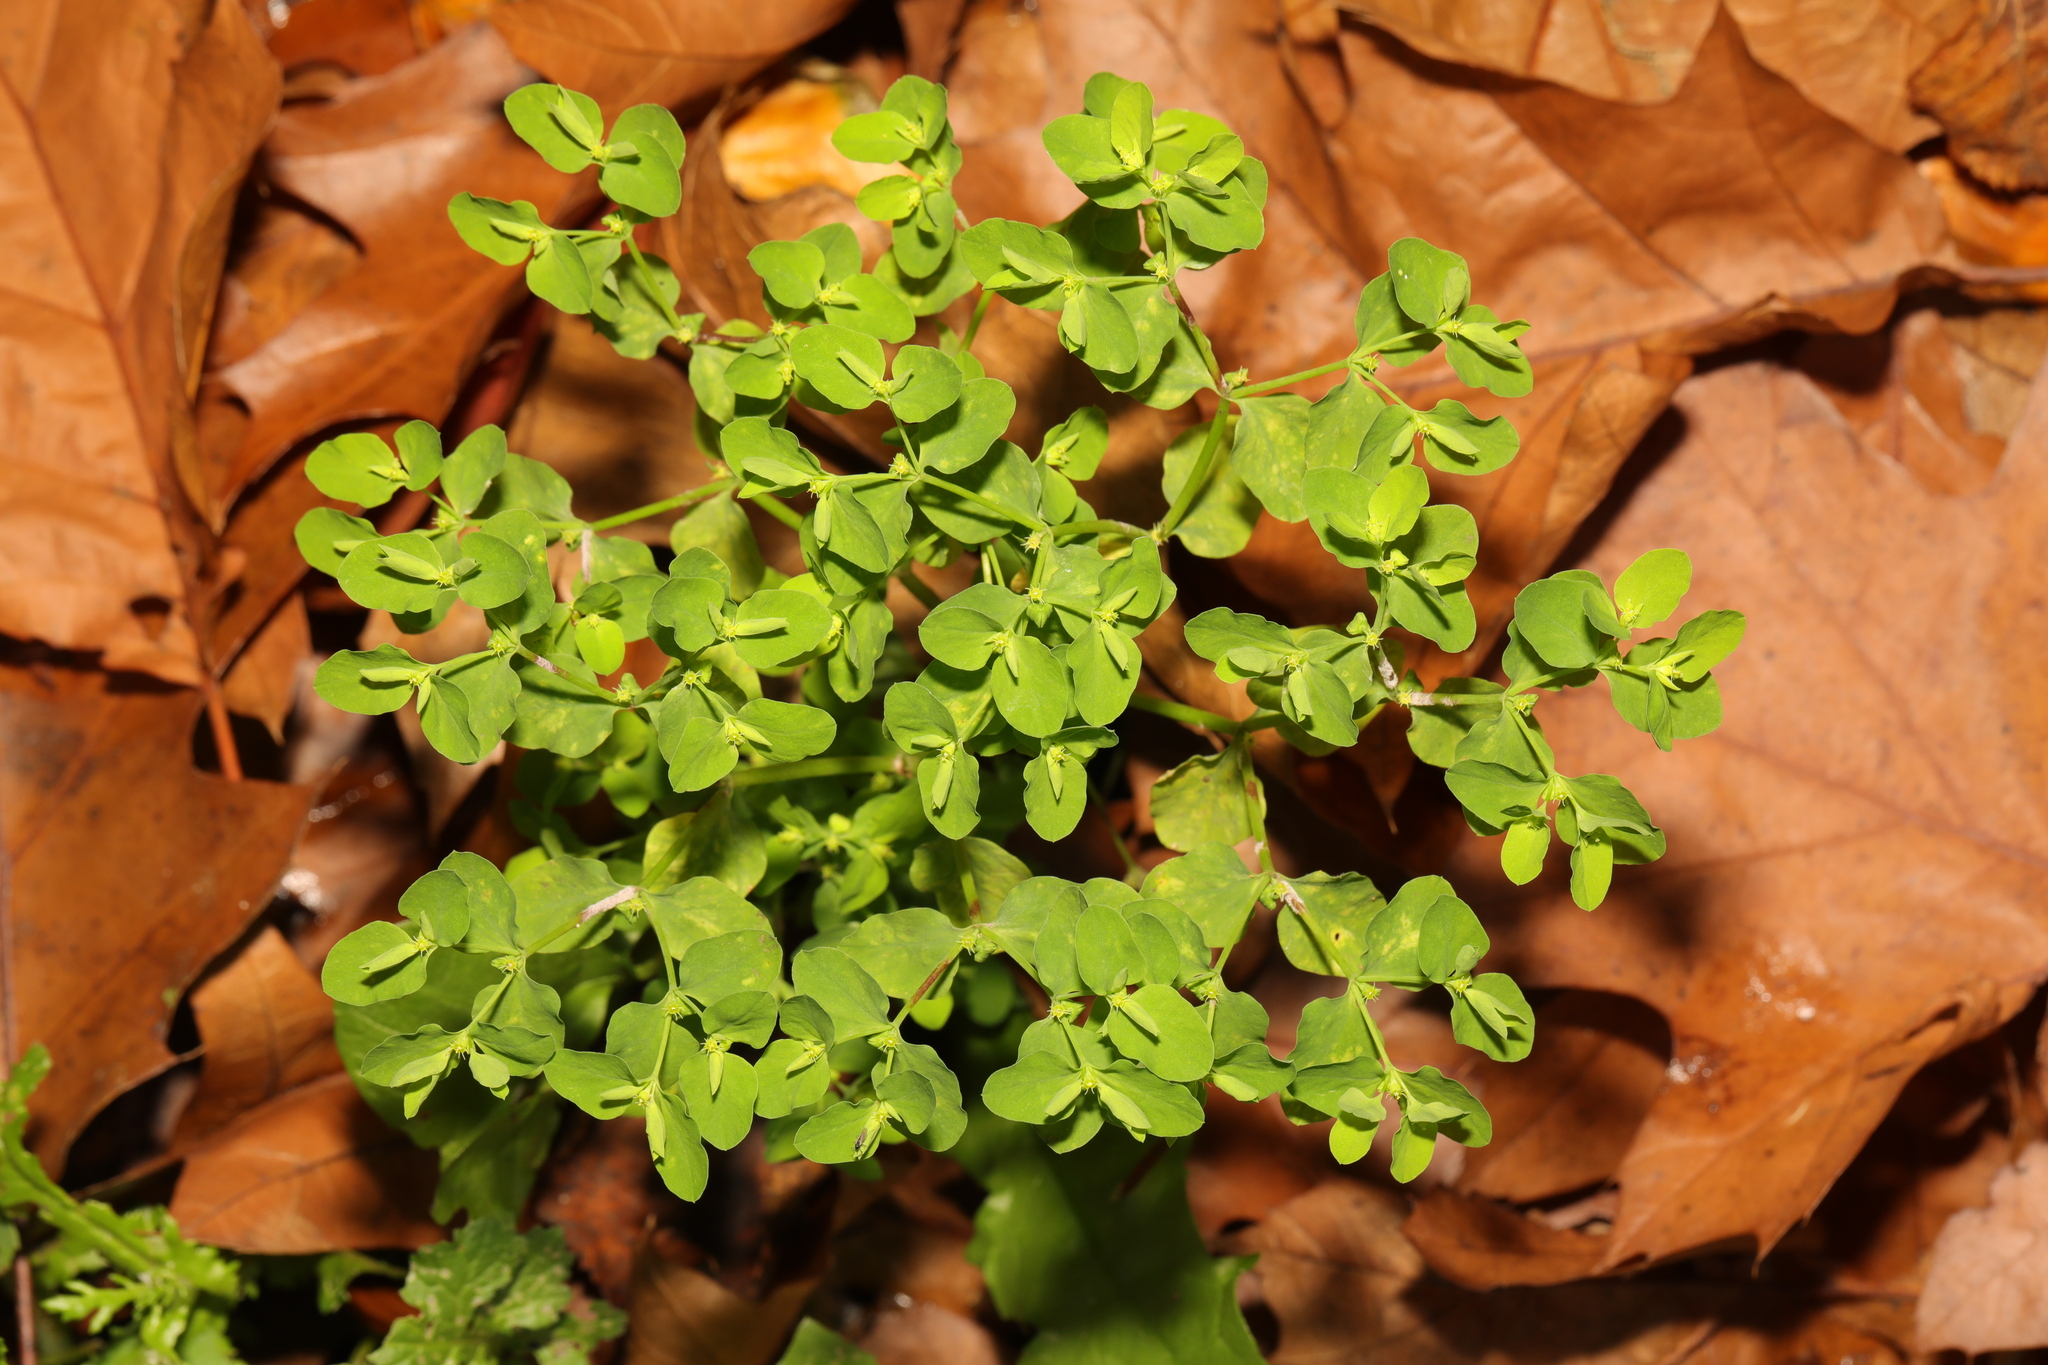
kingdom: Plantae
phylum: Tracheophyta
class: Magnoliopsida
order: Malpighiales
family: Euphorbiaceae
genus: Euphorbia
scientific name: Euphorbia peplus
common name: Petty spurge
